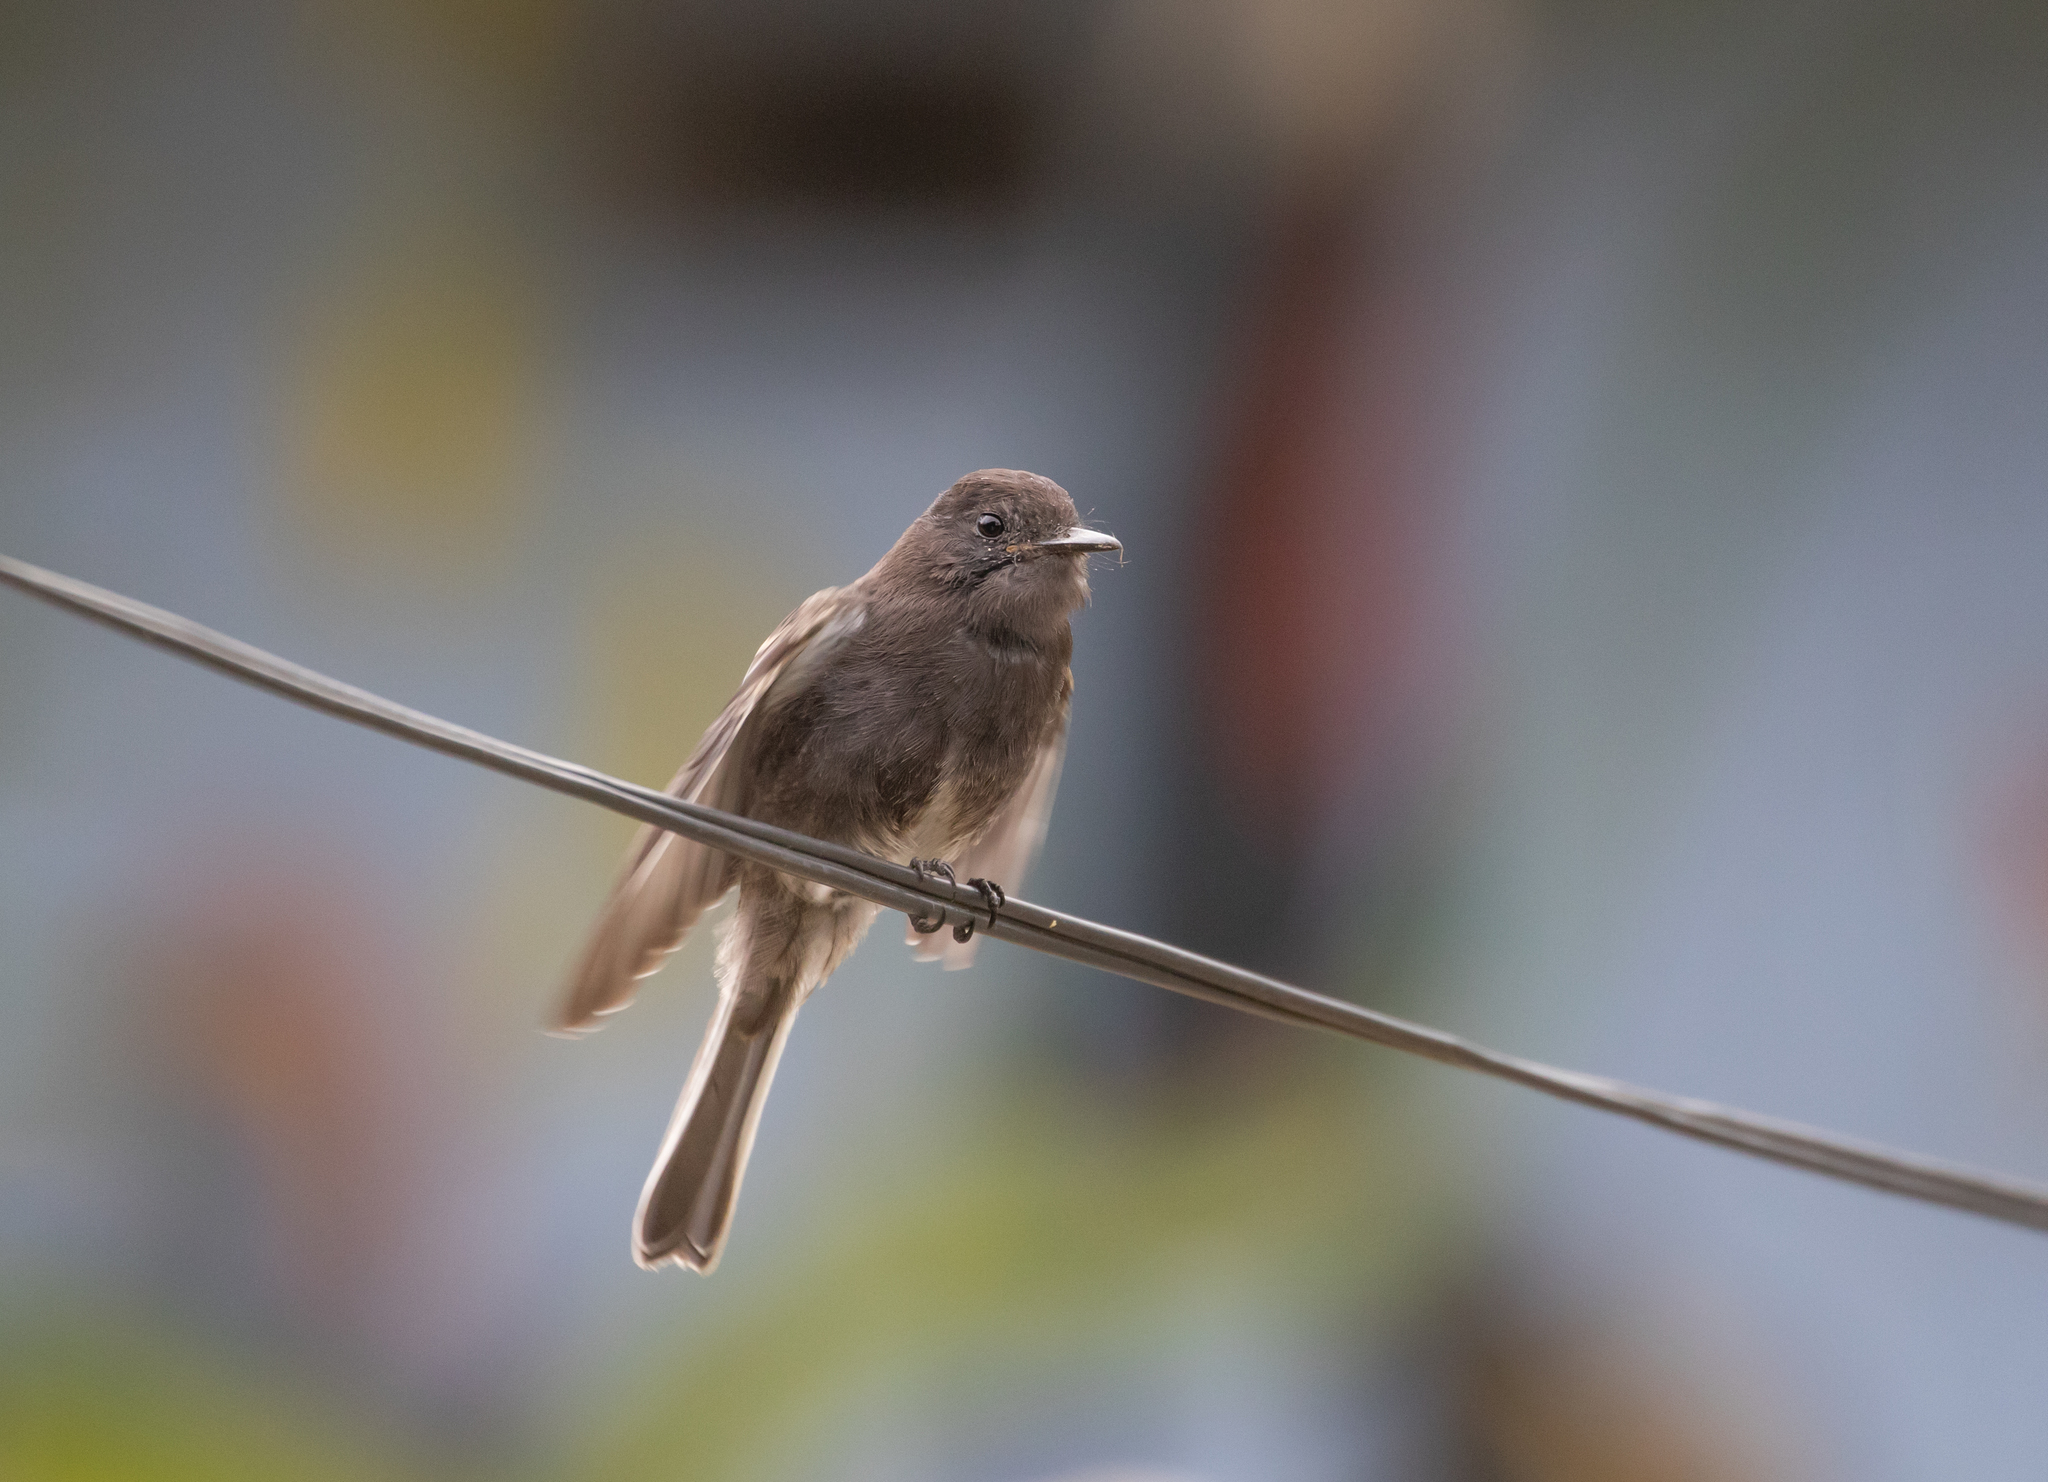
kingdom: Animalia
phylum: Chordata
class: Aves
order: Passeriformes
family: Tyrannidae
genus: Sayornis
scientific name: Sayornis nigricans
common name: Black phoebe
